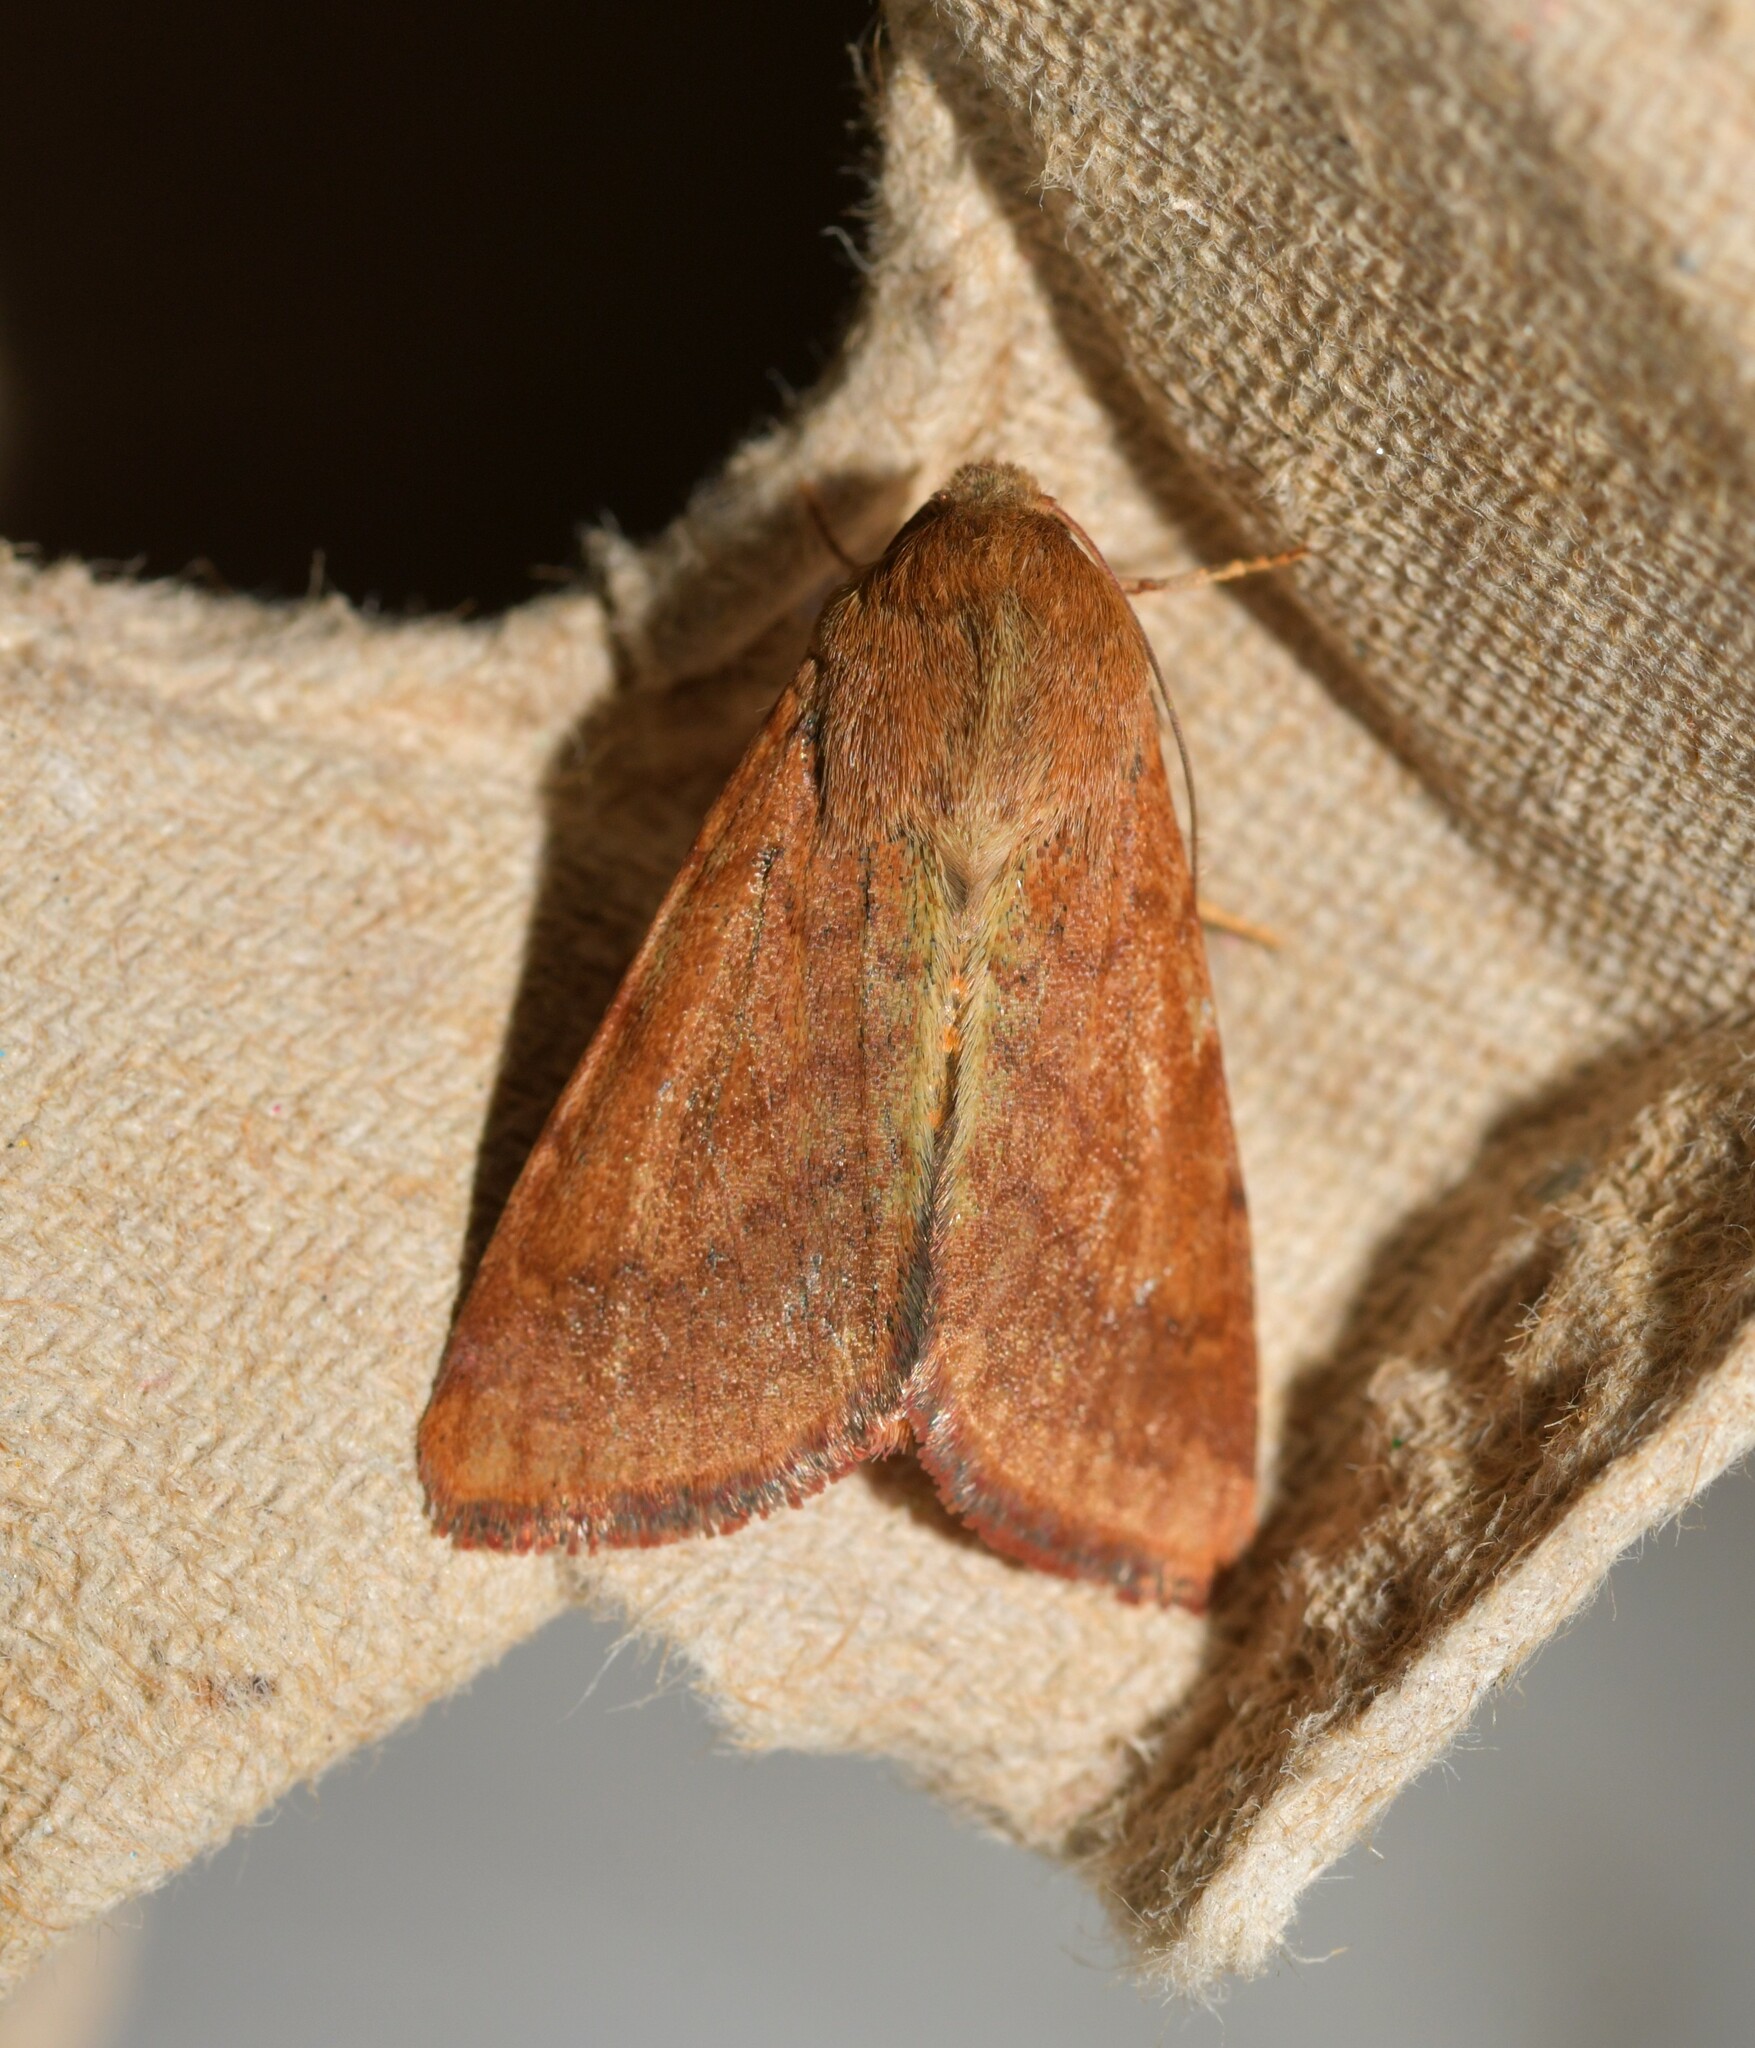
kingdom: Animalia
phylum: Arthropoda
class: Insecta
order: Lepidoptera
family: Noctuidae
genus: Helicoverpa
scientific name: Helicoverpa armigera
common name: Cotton bollworm
